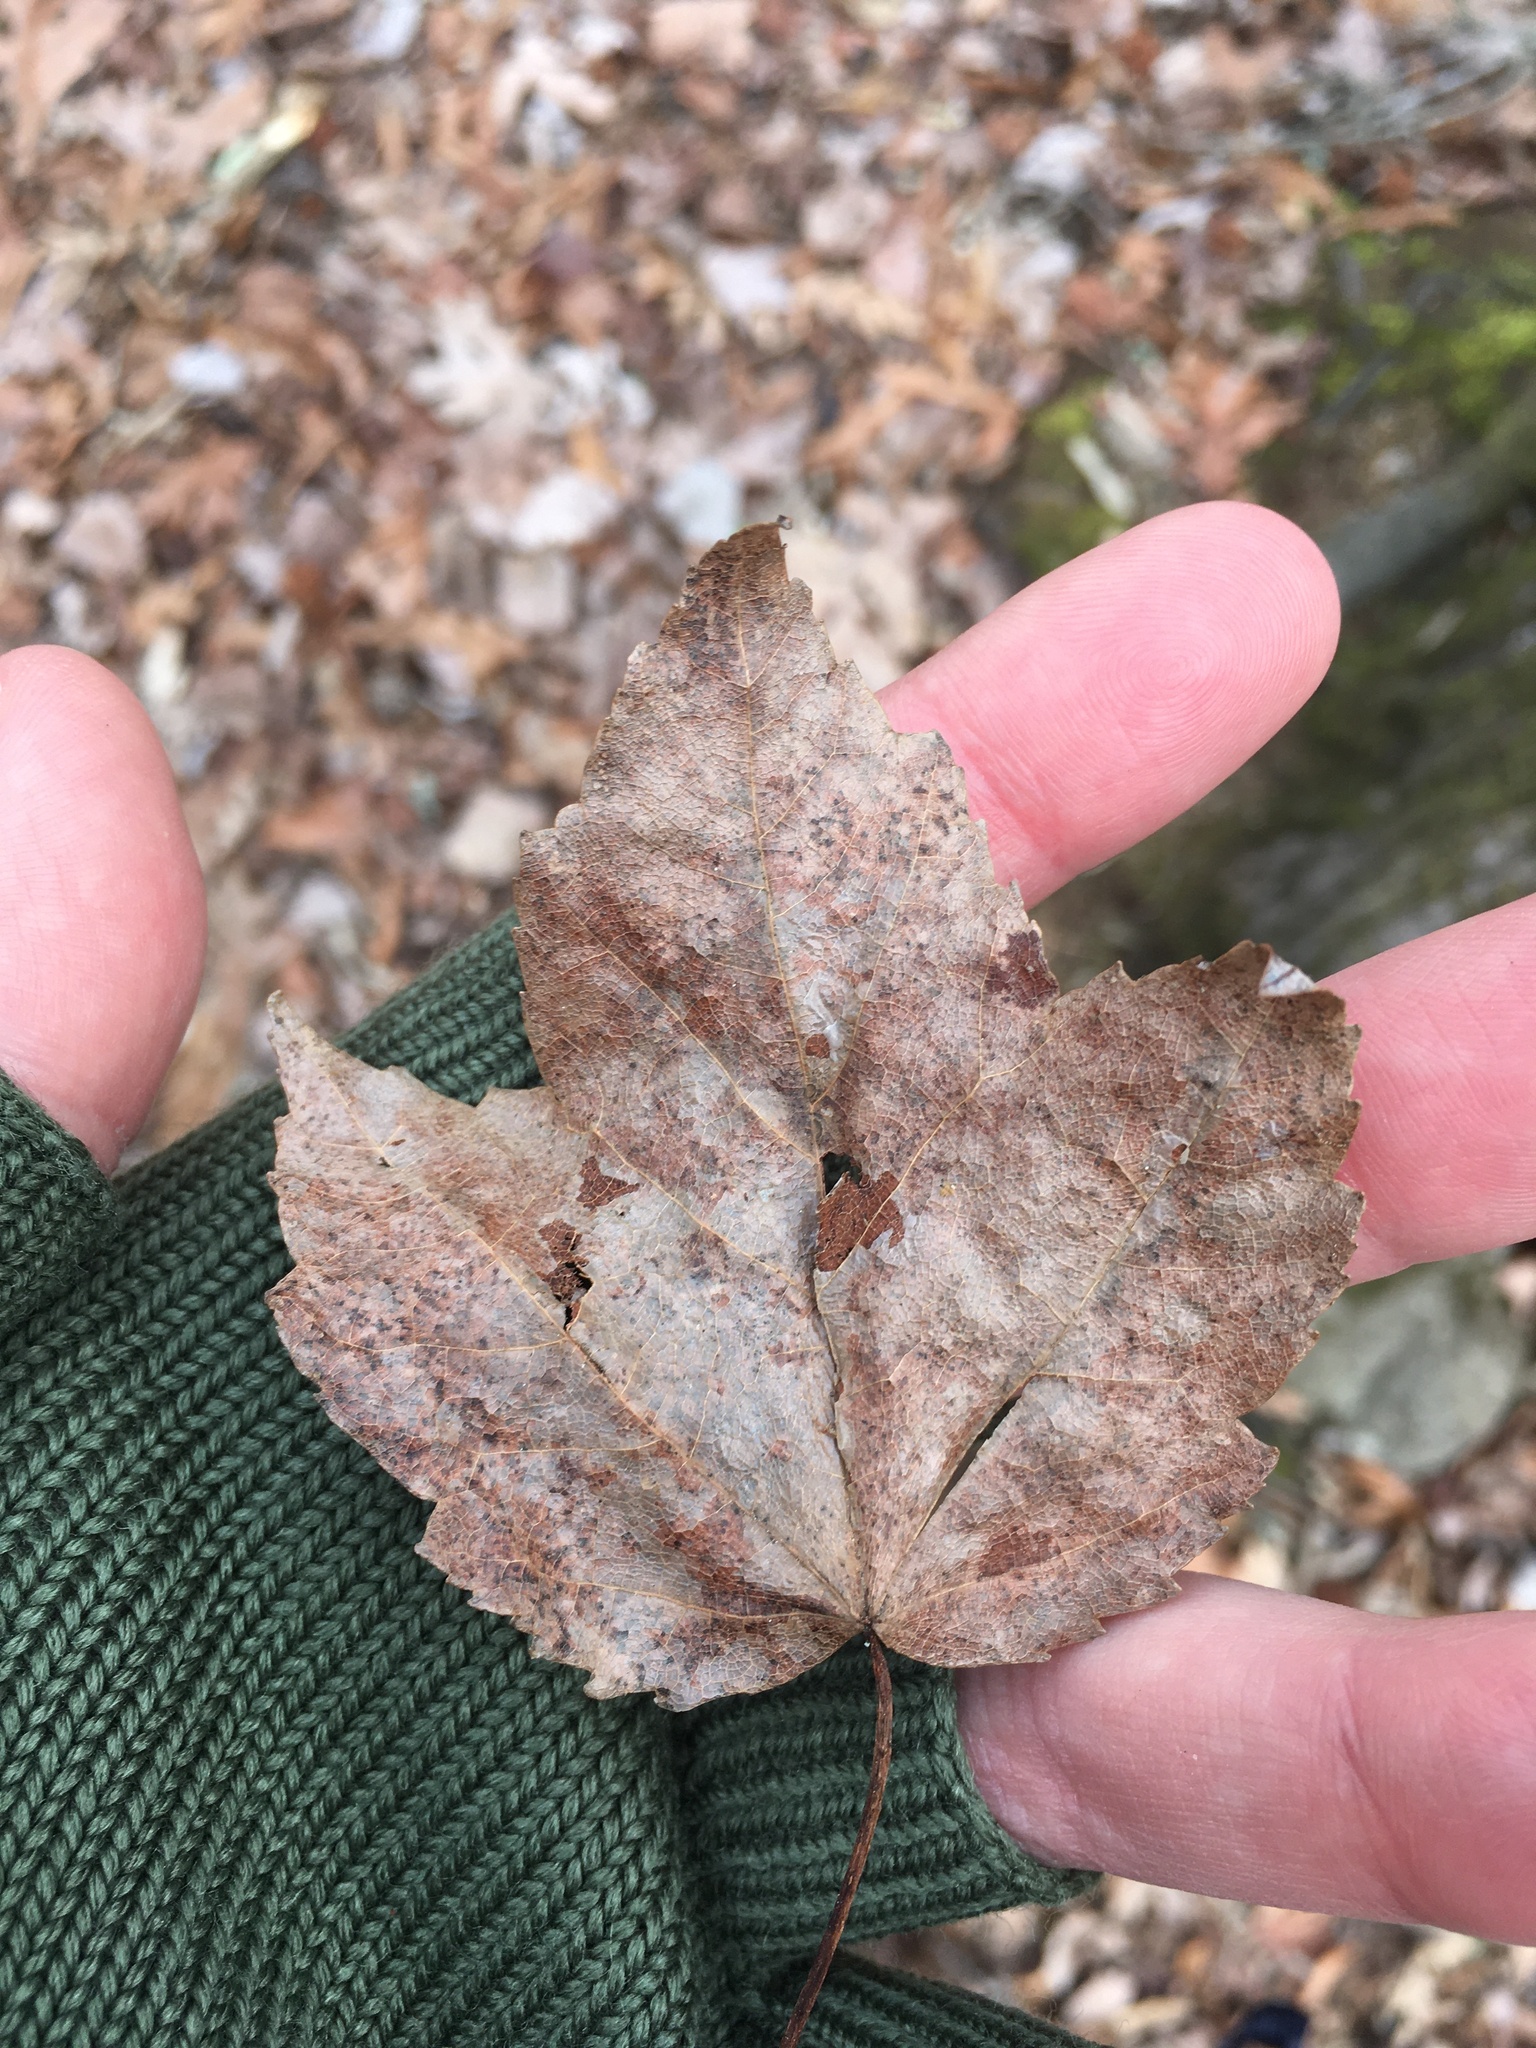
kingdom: Plantae
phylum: Tracheophyta
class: Magnoliopsida
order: Sapindales
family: Sapindaceae
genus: Acer
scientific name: Acer rubrum
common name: Red maple
